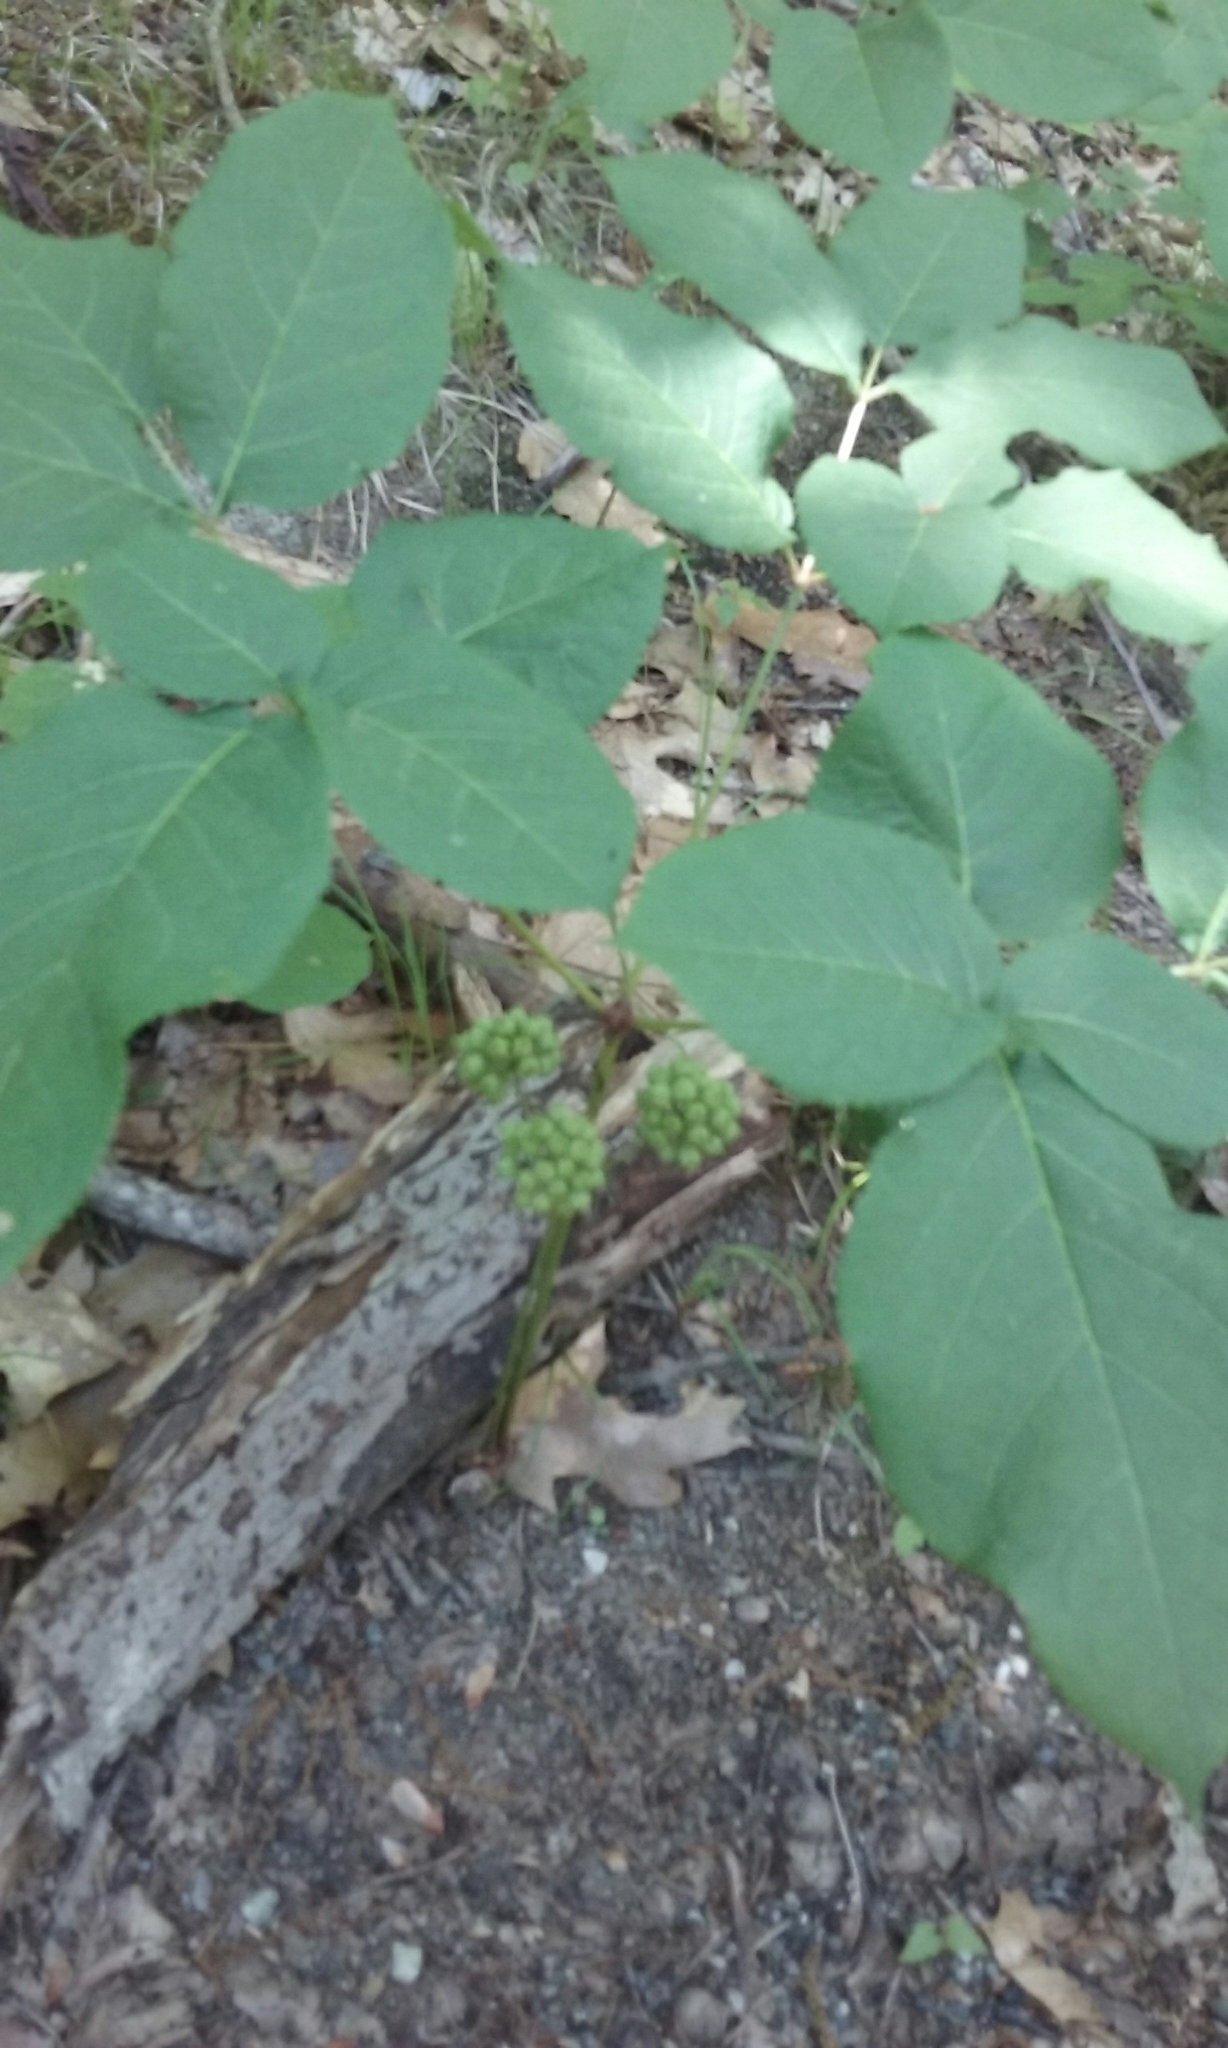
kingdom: Plantae
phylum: Tracheophyta
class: Magnoliopsida
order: Apiales
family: Araliaceae
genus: Aralia
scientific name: Aralia nudicaulis
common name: Wild sarsaparilla
